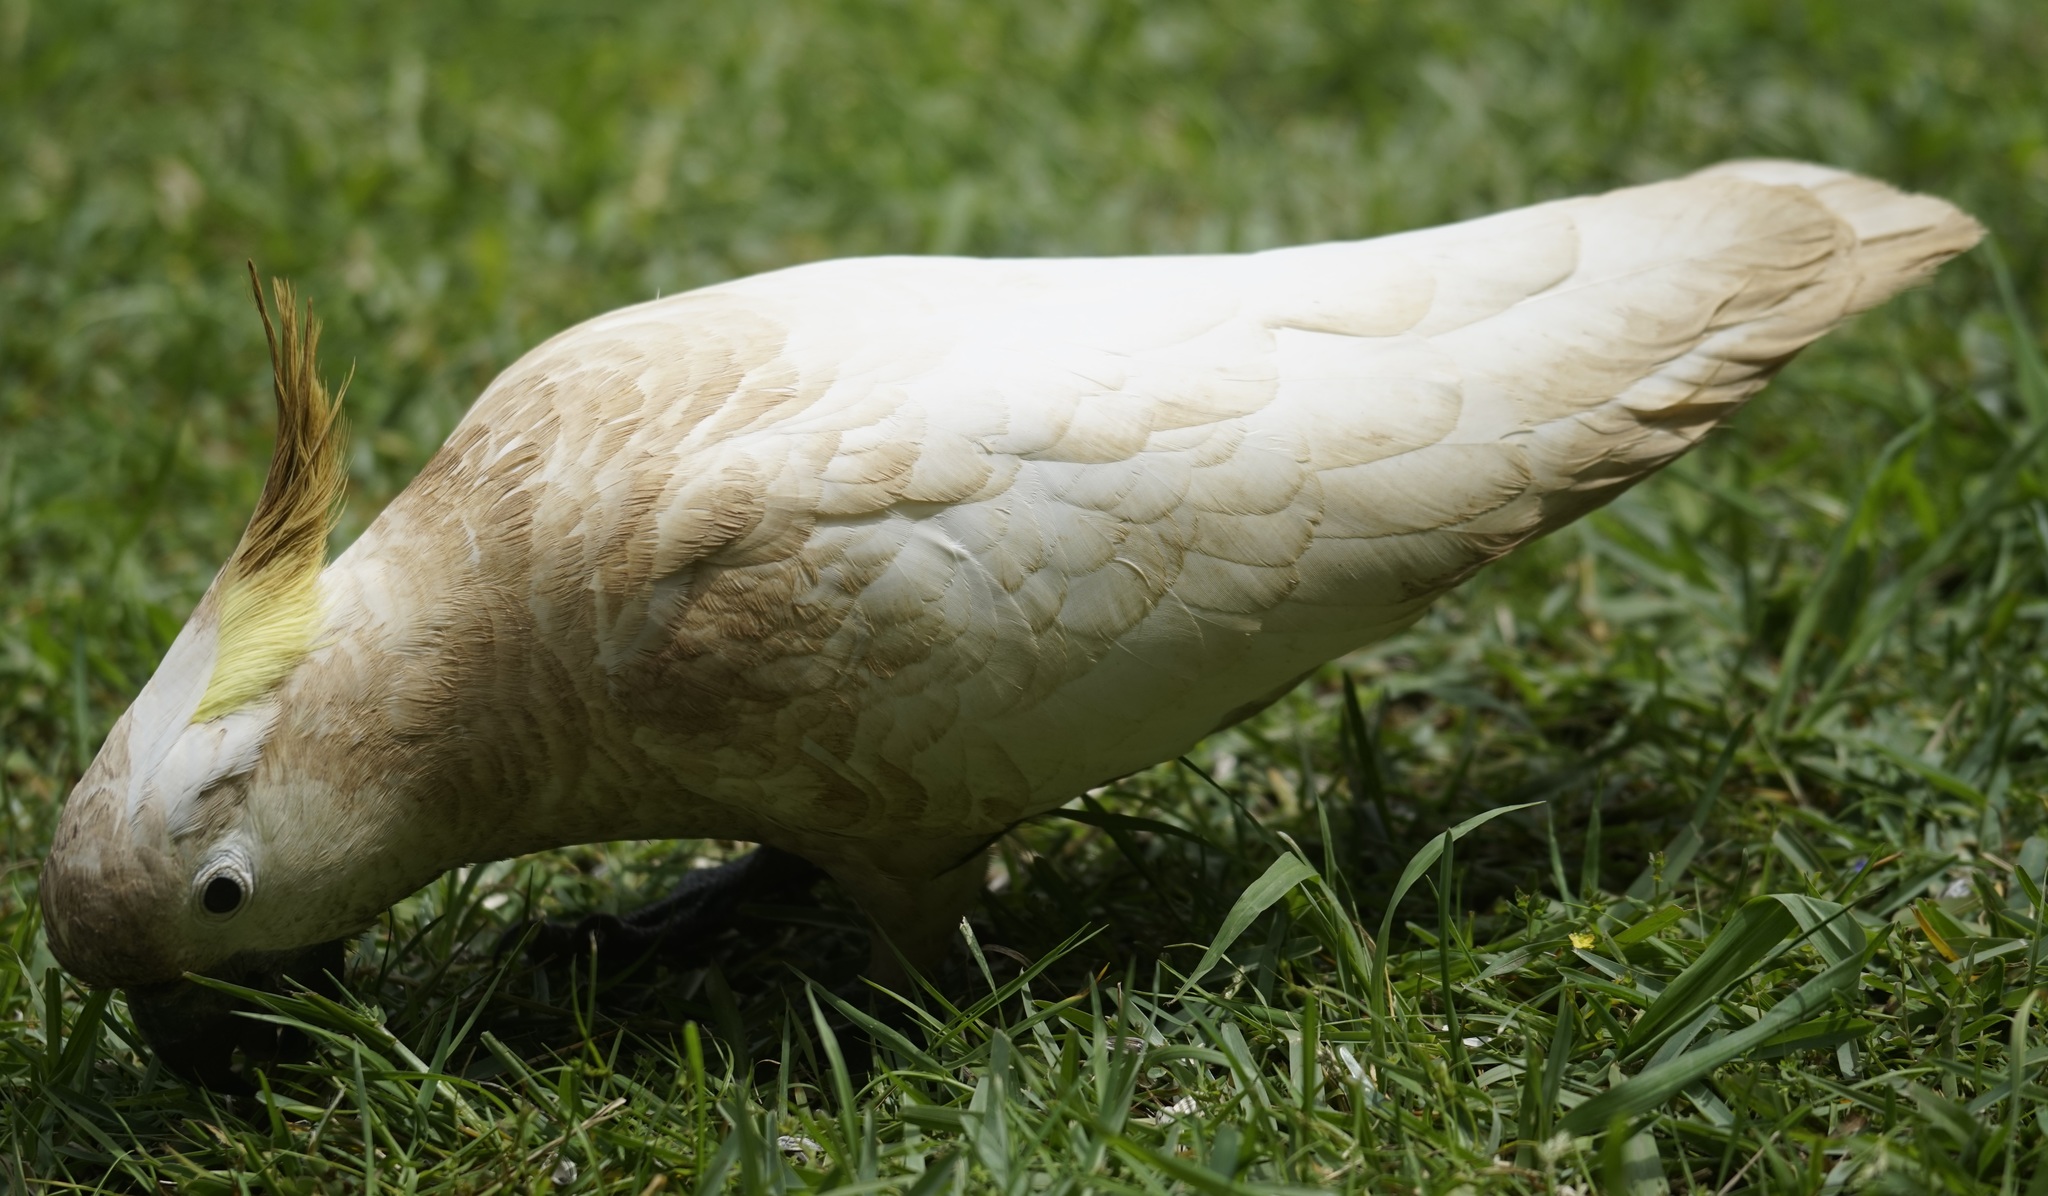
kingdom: Animalia
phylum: Chordata
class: Aves
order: Psittaciformes
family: Psittacidae
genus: Cacatua
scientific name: Cacatua galerita
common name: Sulphur-crested cockatoo
